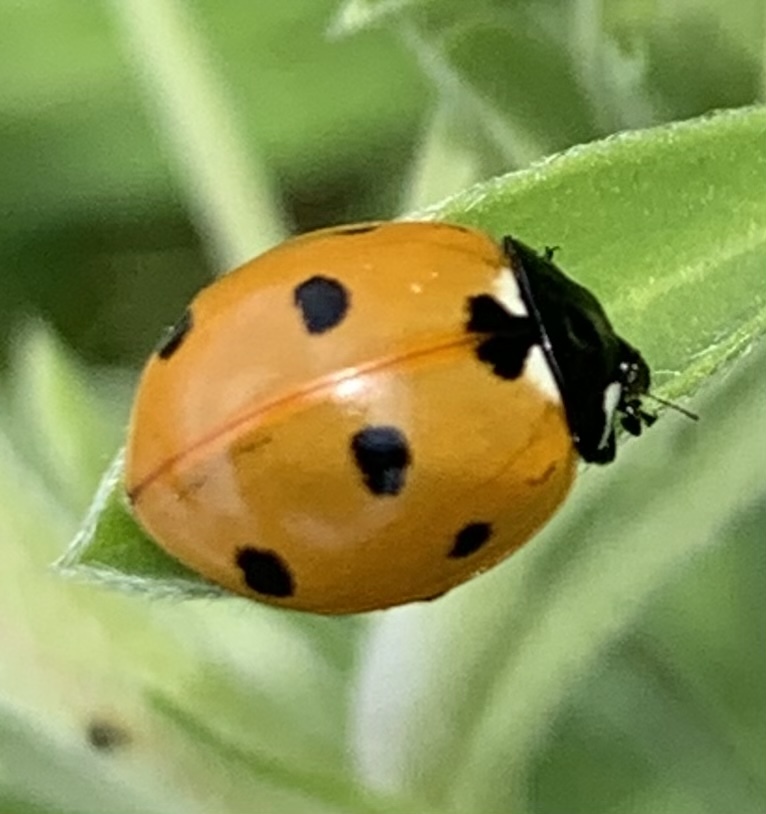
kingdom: Animalia
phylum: Arthropoda
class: Insecta
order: Coleoptera
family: Coccinellidae
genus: Coccinella
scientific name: Coccinella septempunctata
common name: Sevenspotted lady beetle
